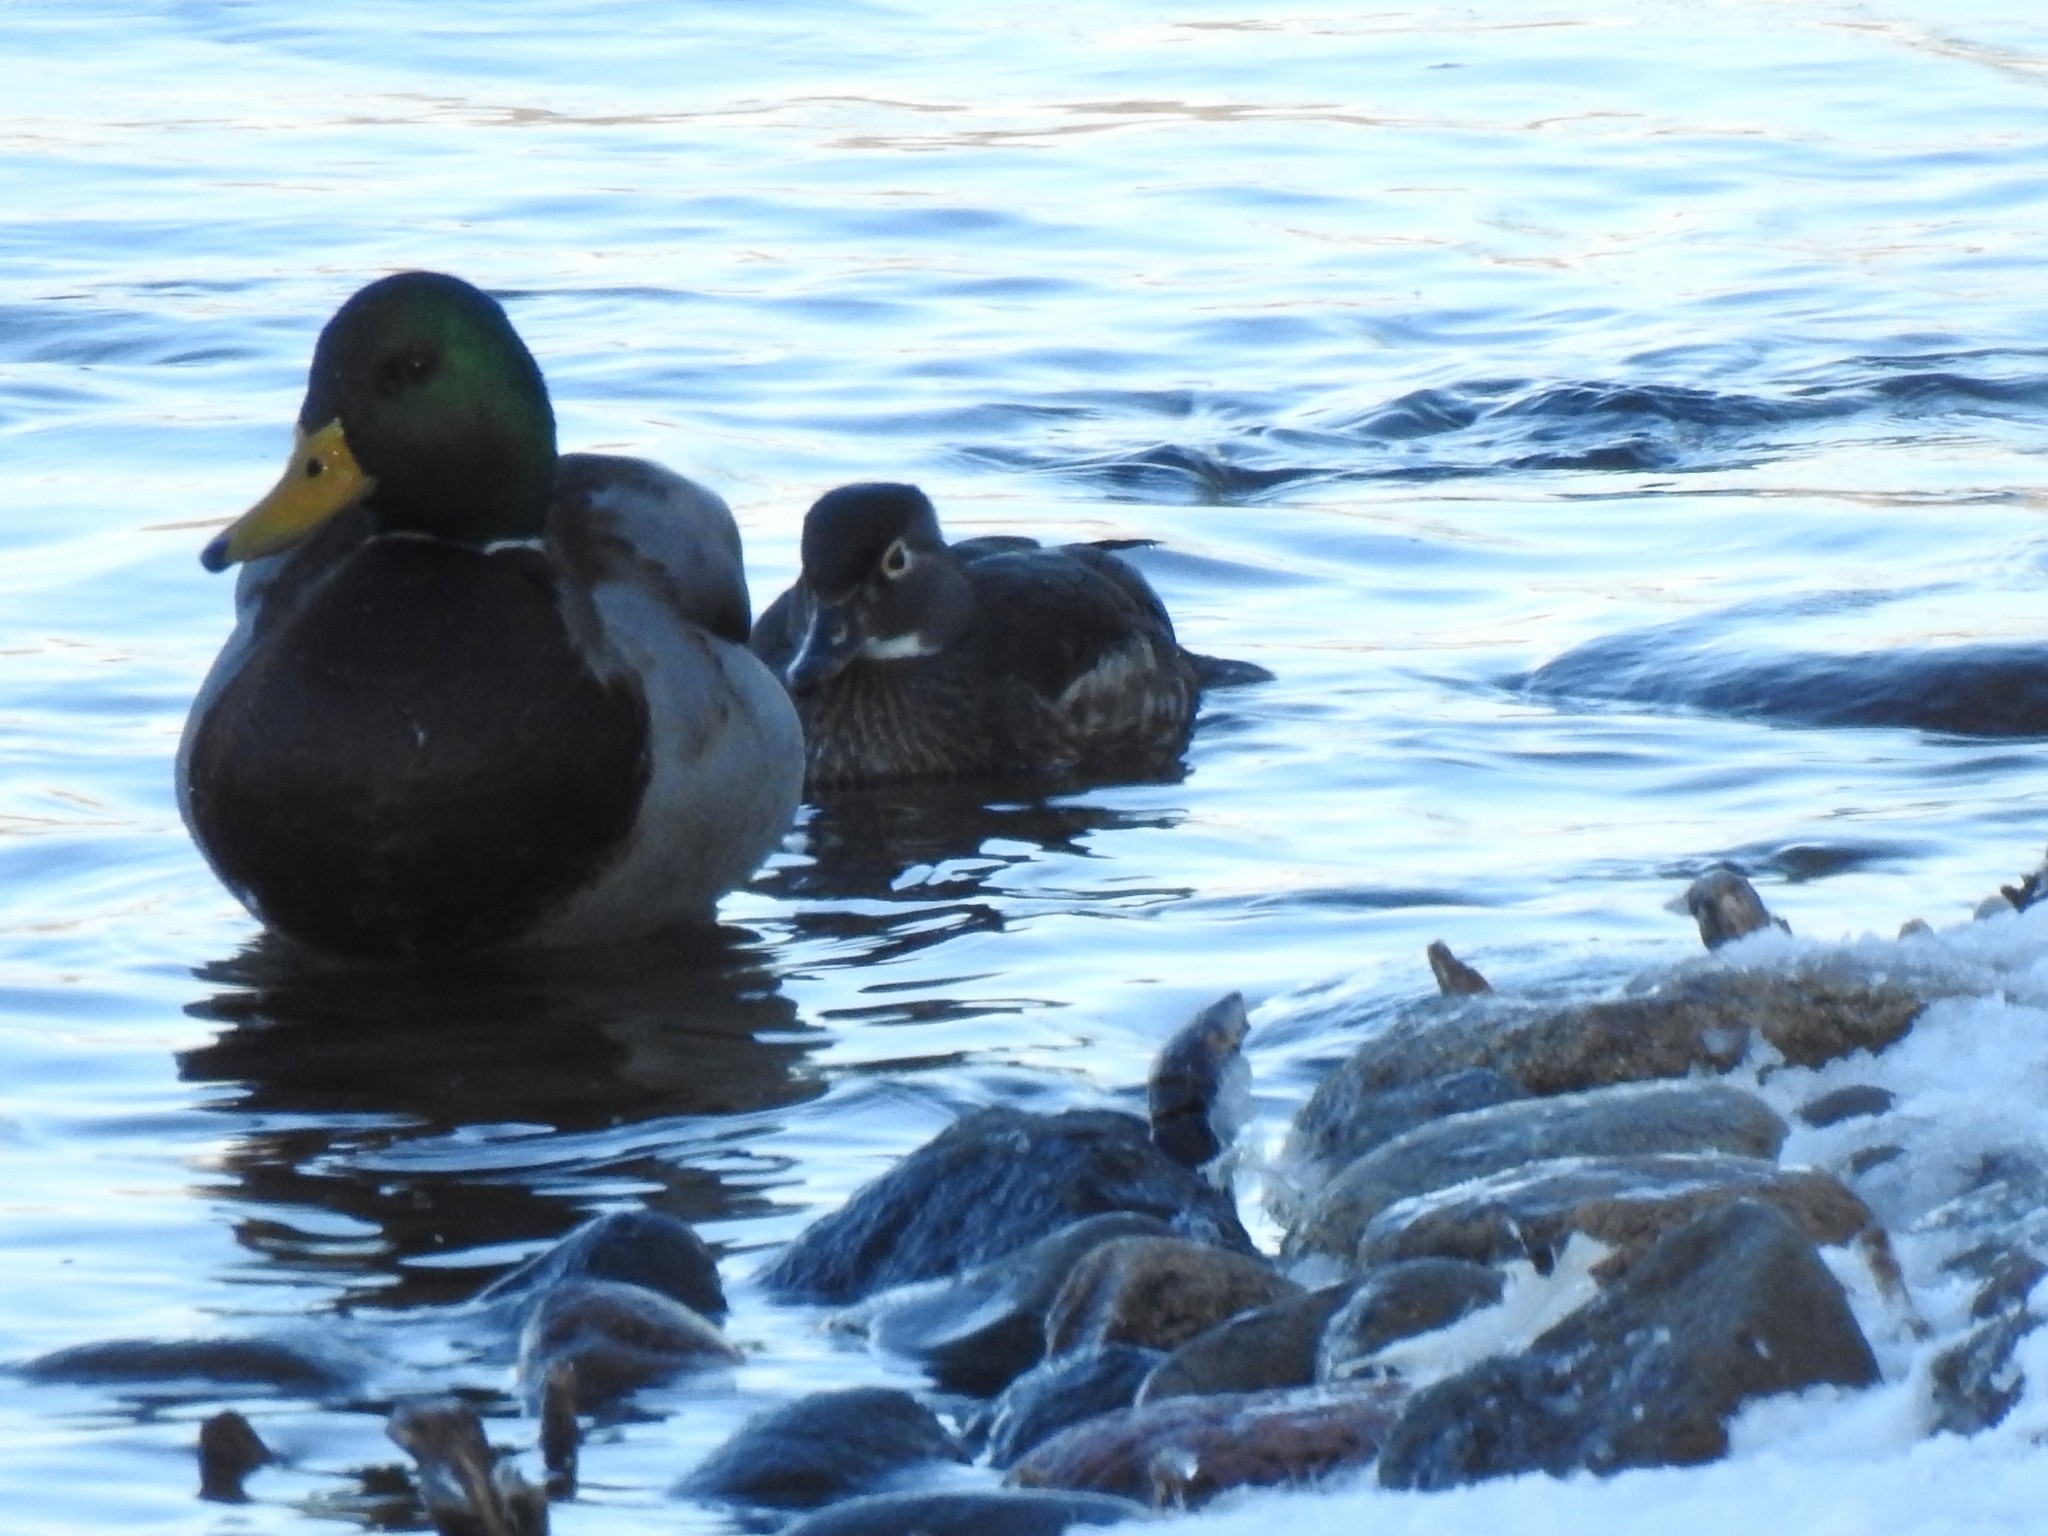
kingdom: Animalia
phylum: Chordata
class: Aves
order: Anseriformes
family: Anatidae
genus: Aix
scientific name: Aix sponsa
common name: Wood duck
